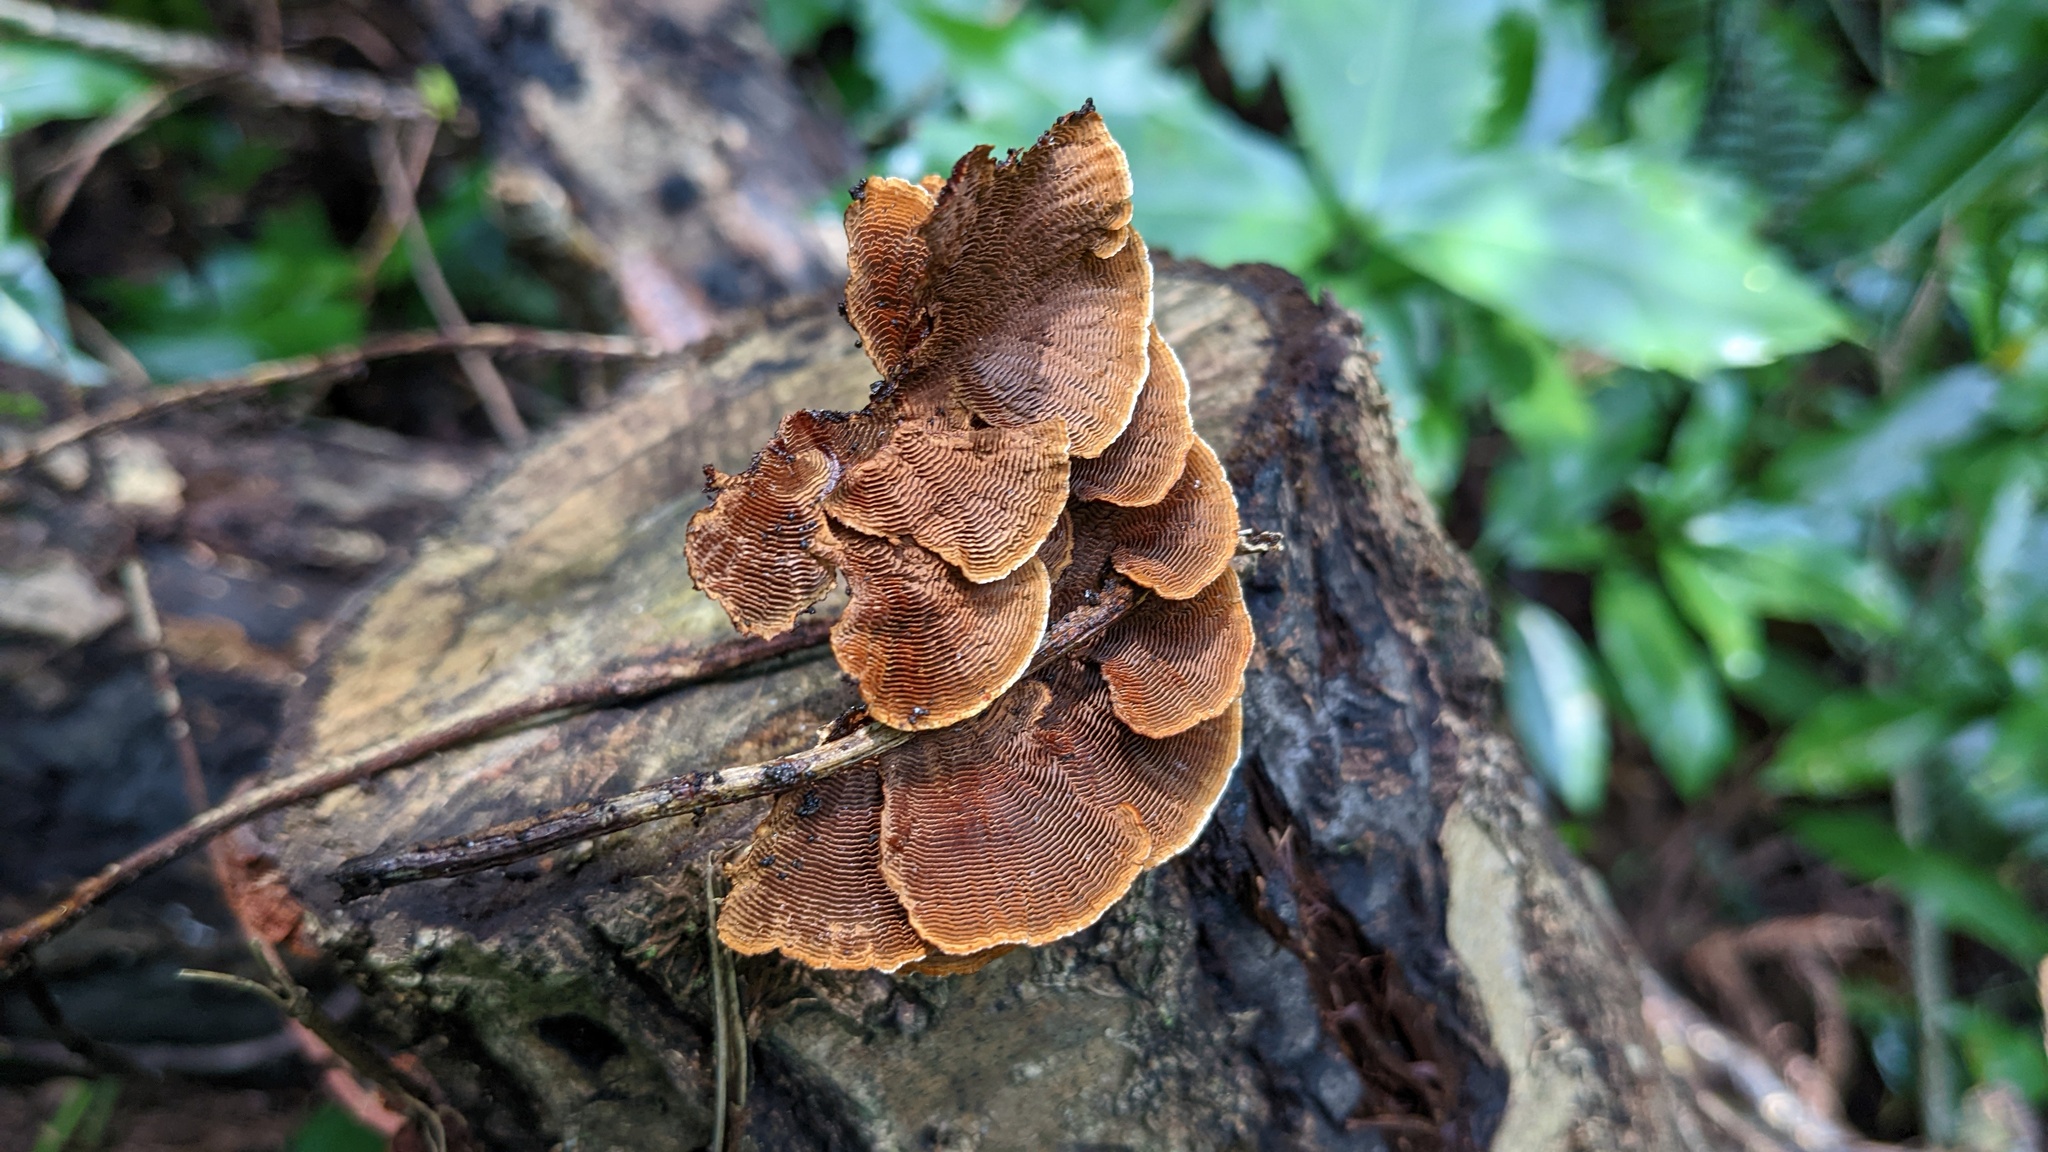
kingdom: Fungi
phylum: Basidiomycota
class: Agaricomycetes
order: Hymenochaetales
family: Hymenochaetaceae
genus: Hymenochaete
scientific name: Hymenochaete cyclolamellata
